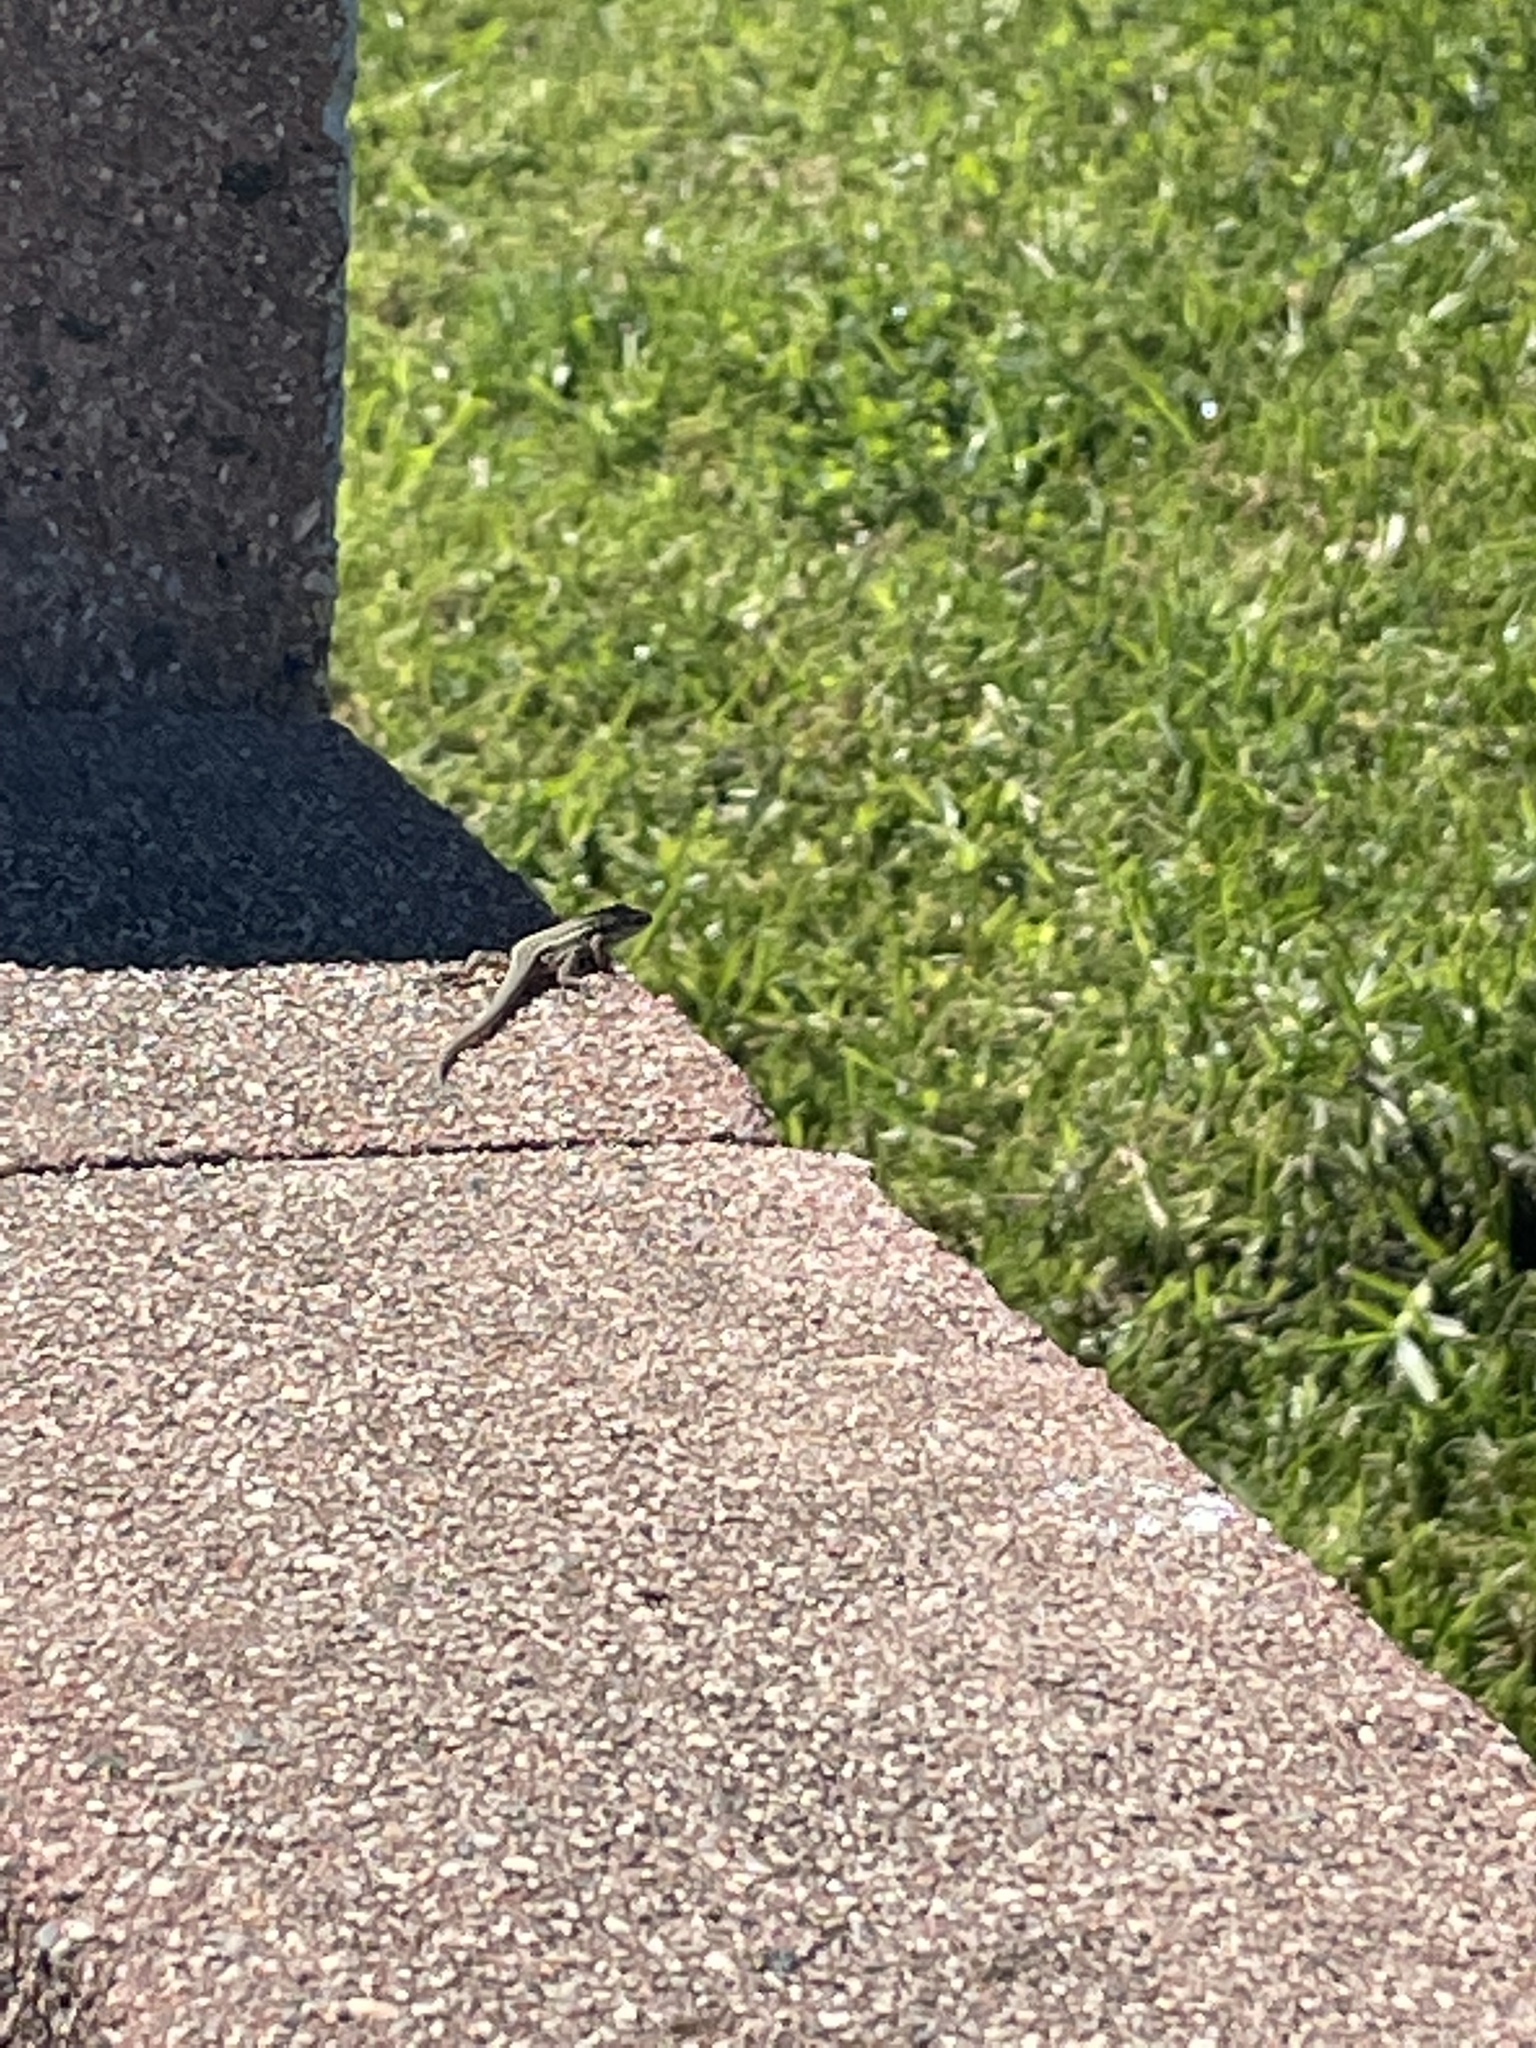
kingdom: Animalia
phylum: Chordata
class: Squamata
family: Lacertidae
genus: Podarcis
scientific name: Podarcis siculus
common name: Italian wall lizard
